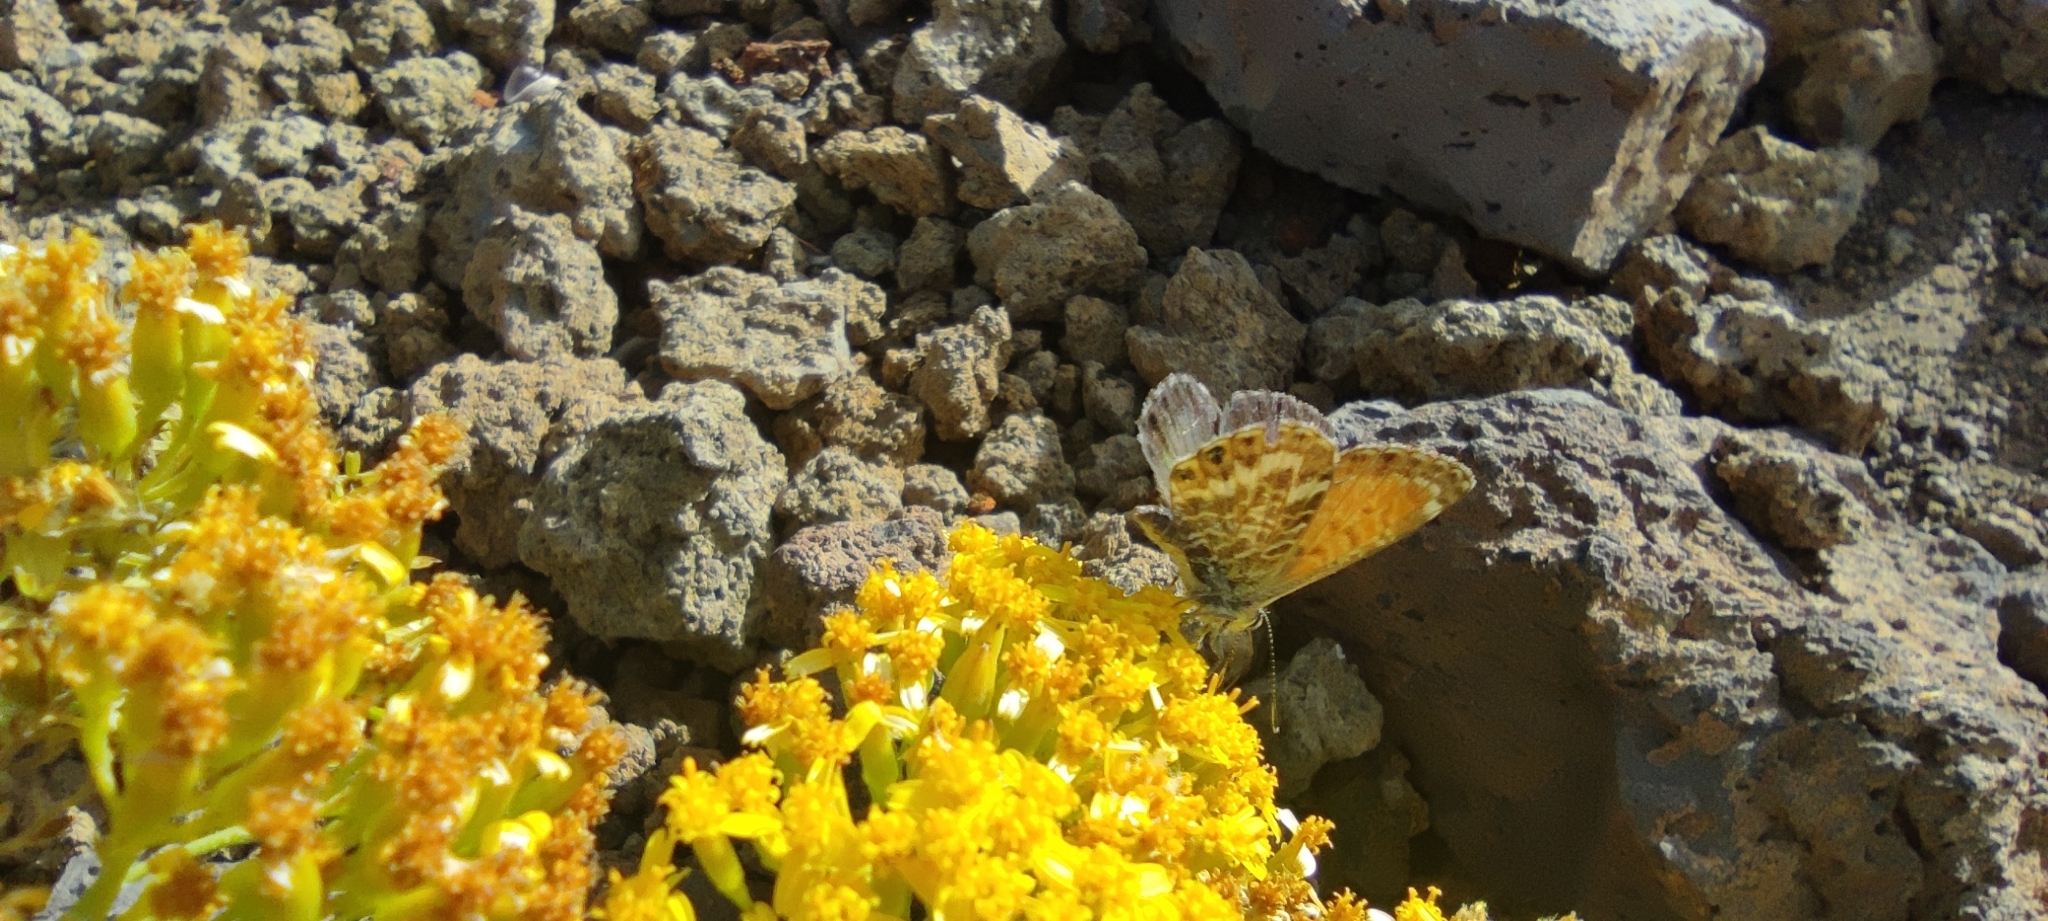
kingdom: Animalia
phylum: Arthropoda
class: Insecta
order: Lepidoptera
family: Lycaenidae
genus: Cyclyrius
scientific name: Cyclyrius webbianus
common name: Canary blue
